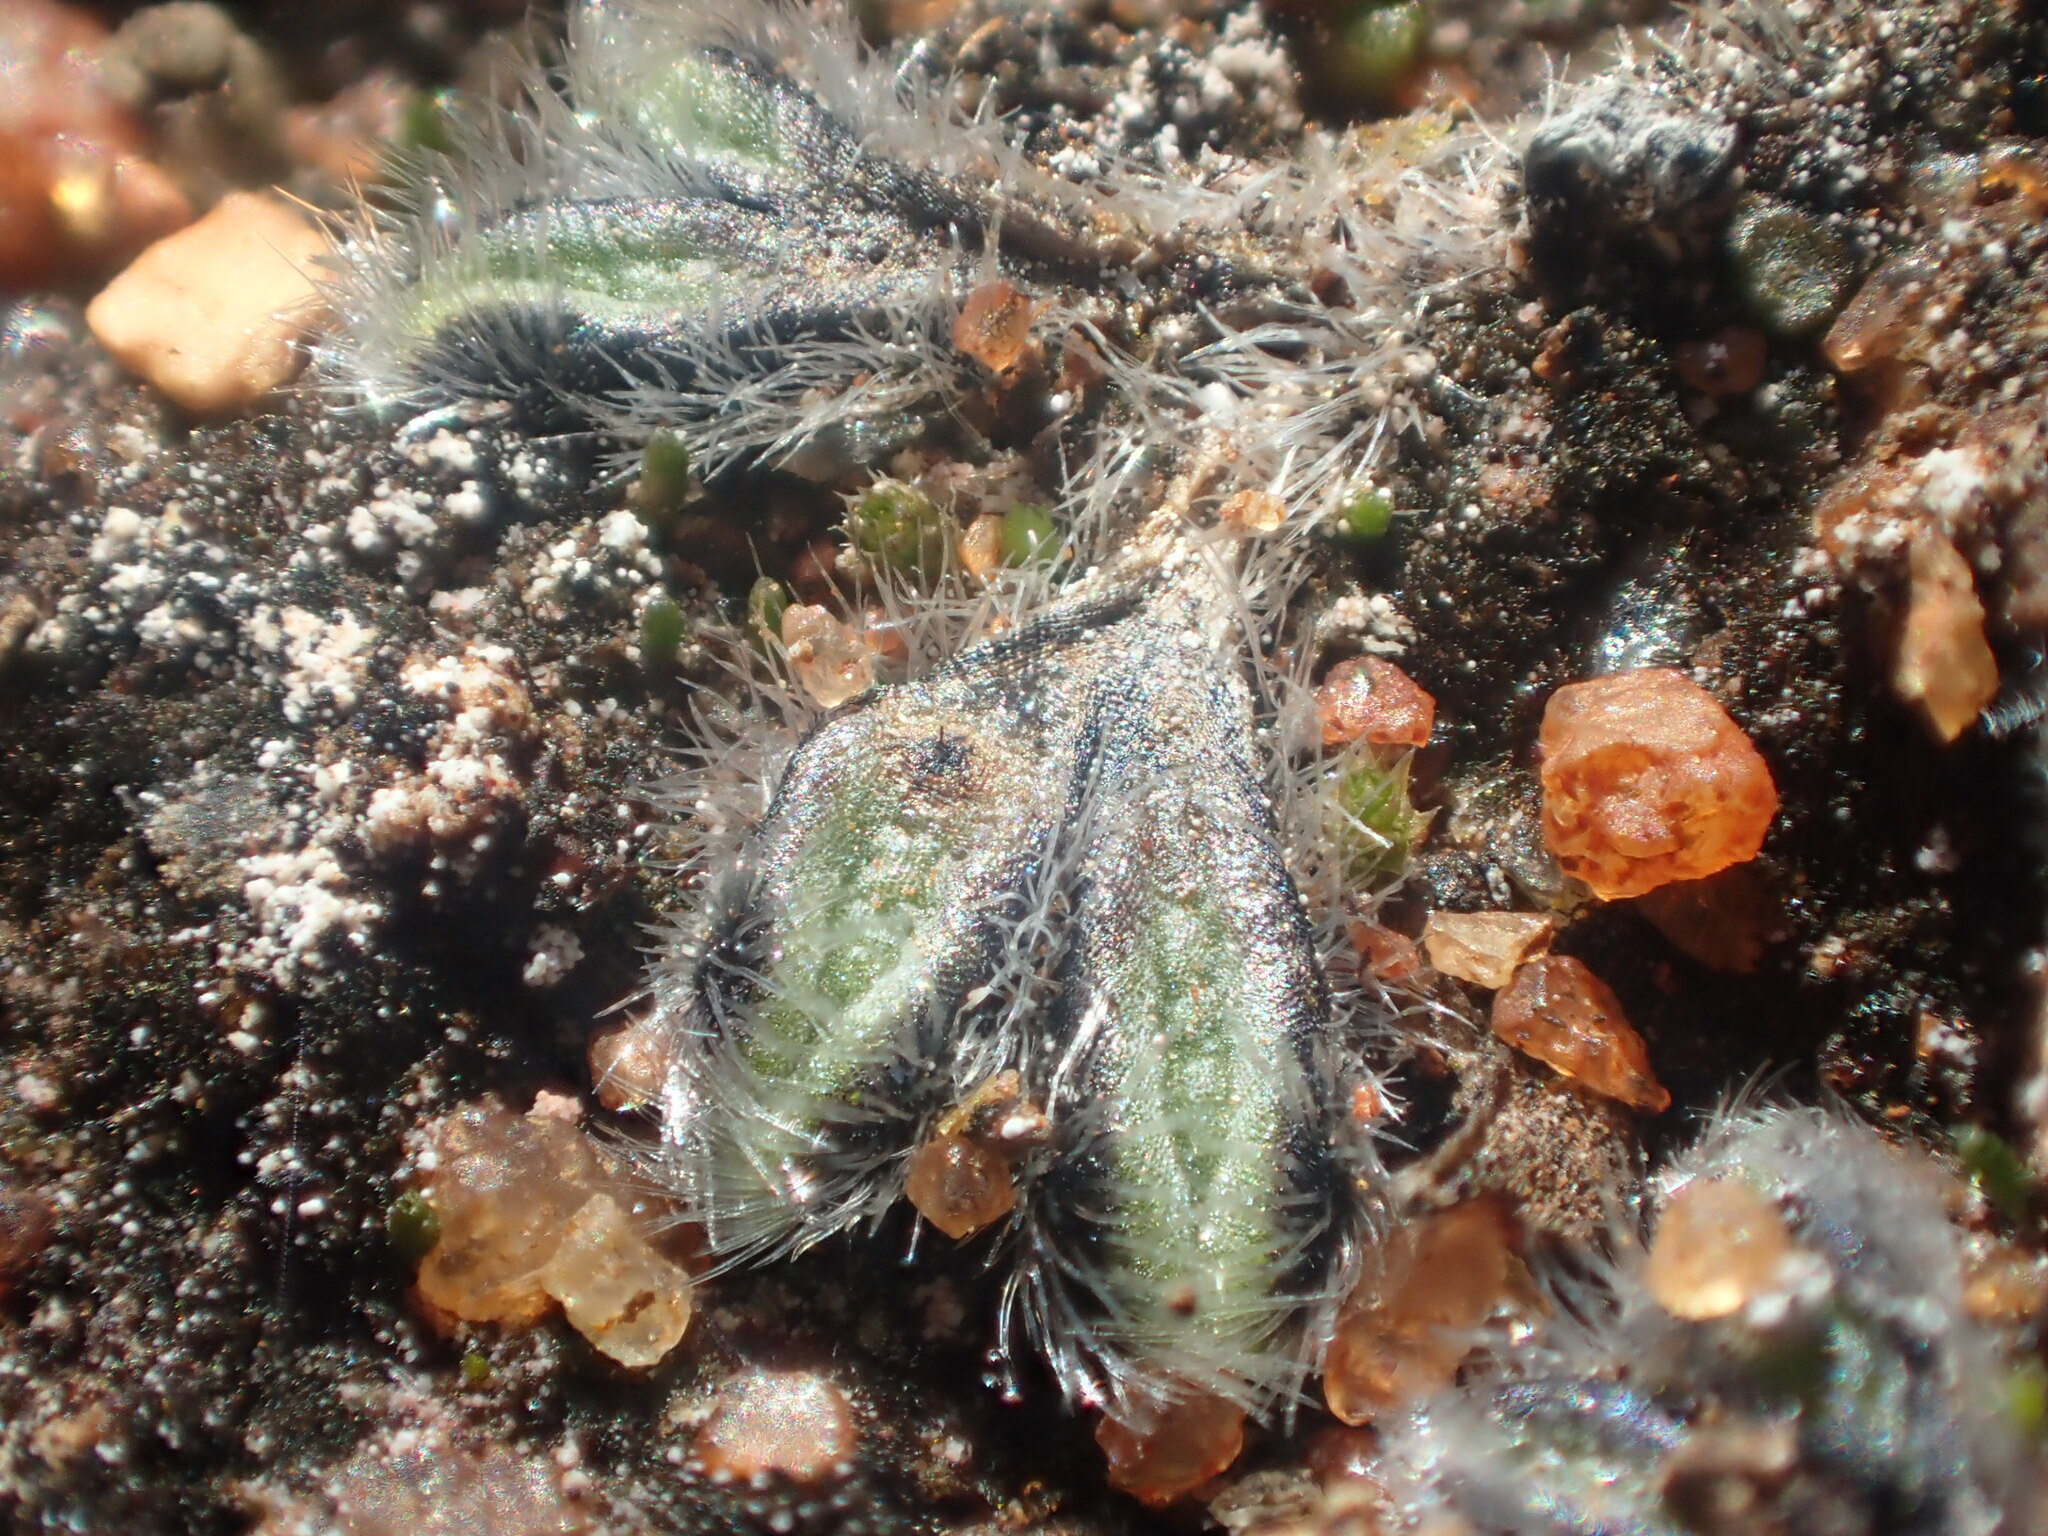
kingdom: Plantae
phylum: Marchantiophyta
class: Marchantiopsida
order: Marchantiales
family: Ricciaceae
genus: Riccia
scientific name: Riccia crinita
